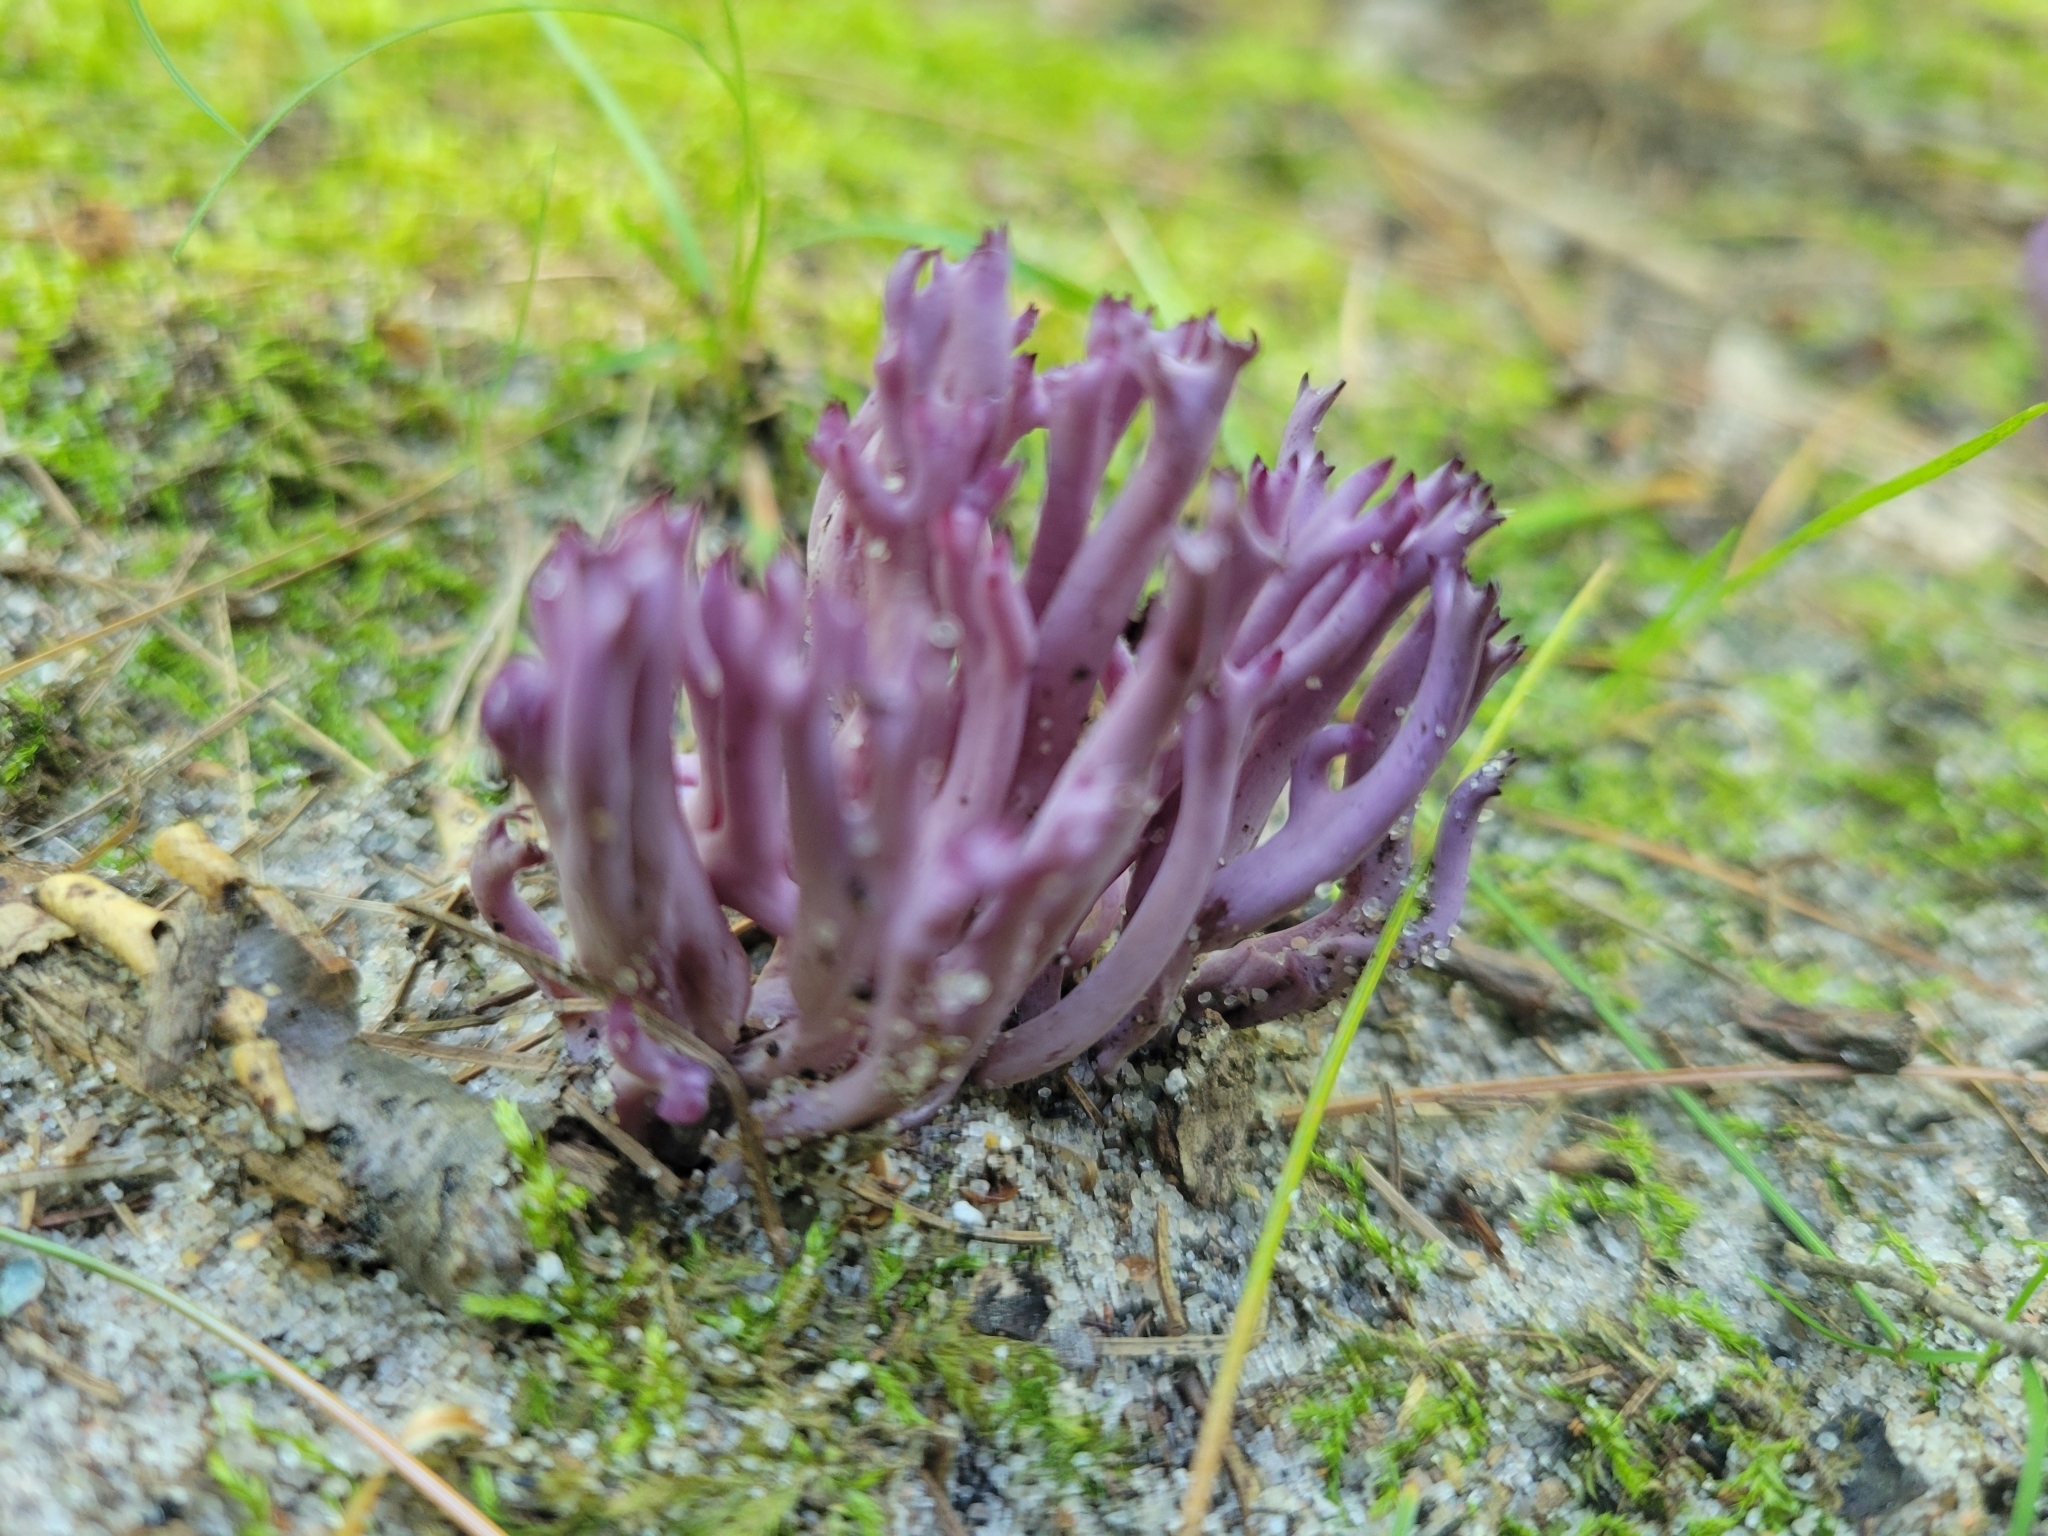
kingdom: Fungi
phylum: Basidiomycota
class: Agaricomycetes
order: Agaricales
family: Clavariaceae
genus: Clavaria
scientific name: Clavaria zollingeri
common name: Violet coral
